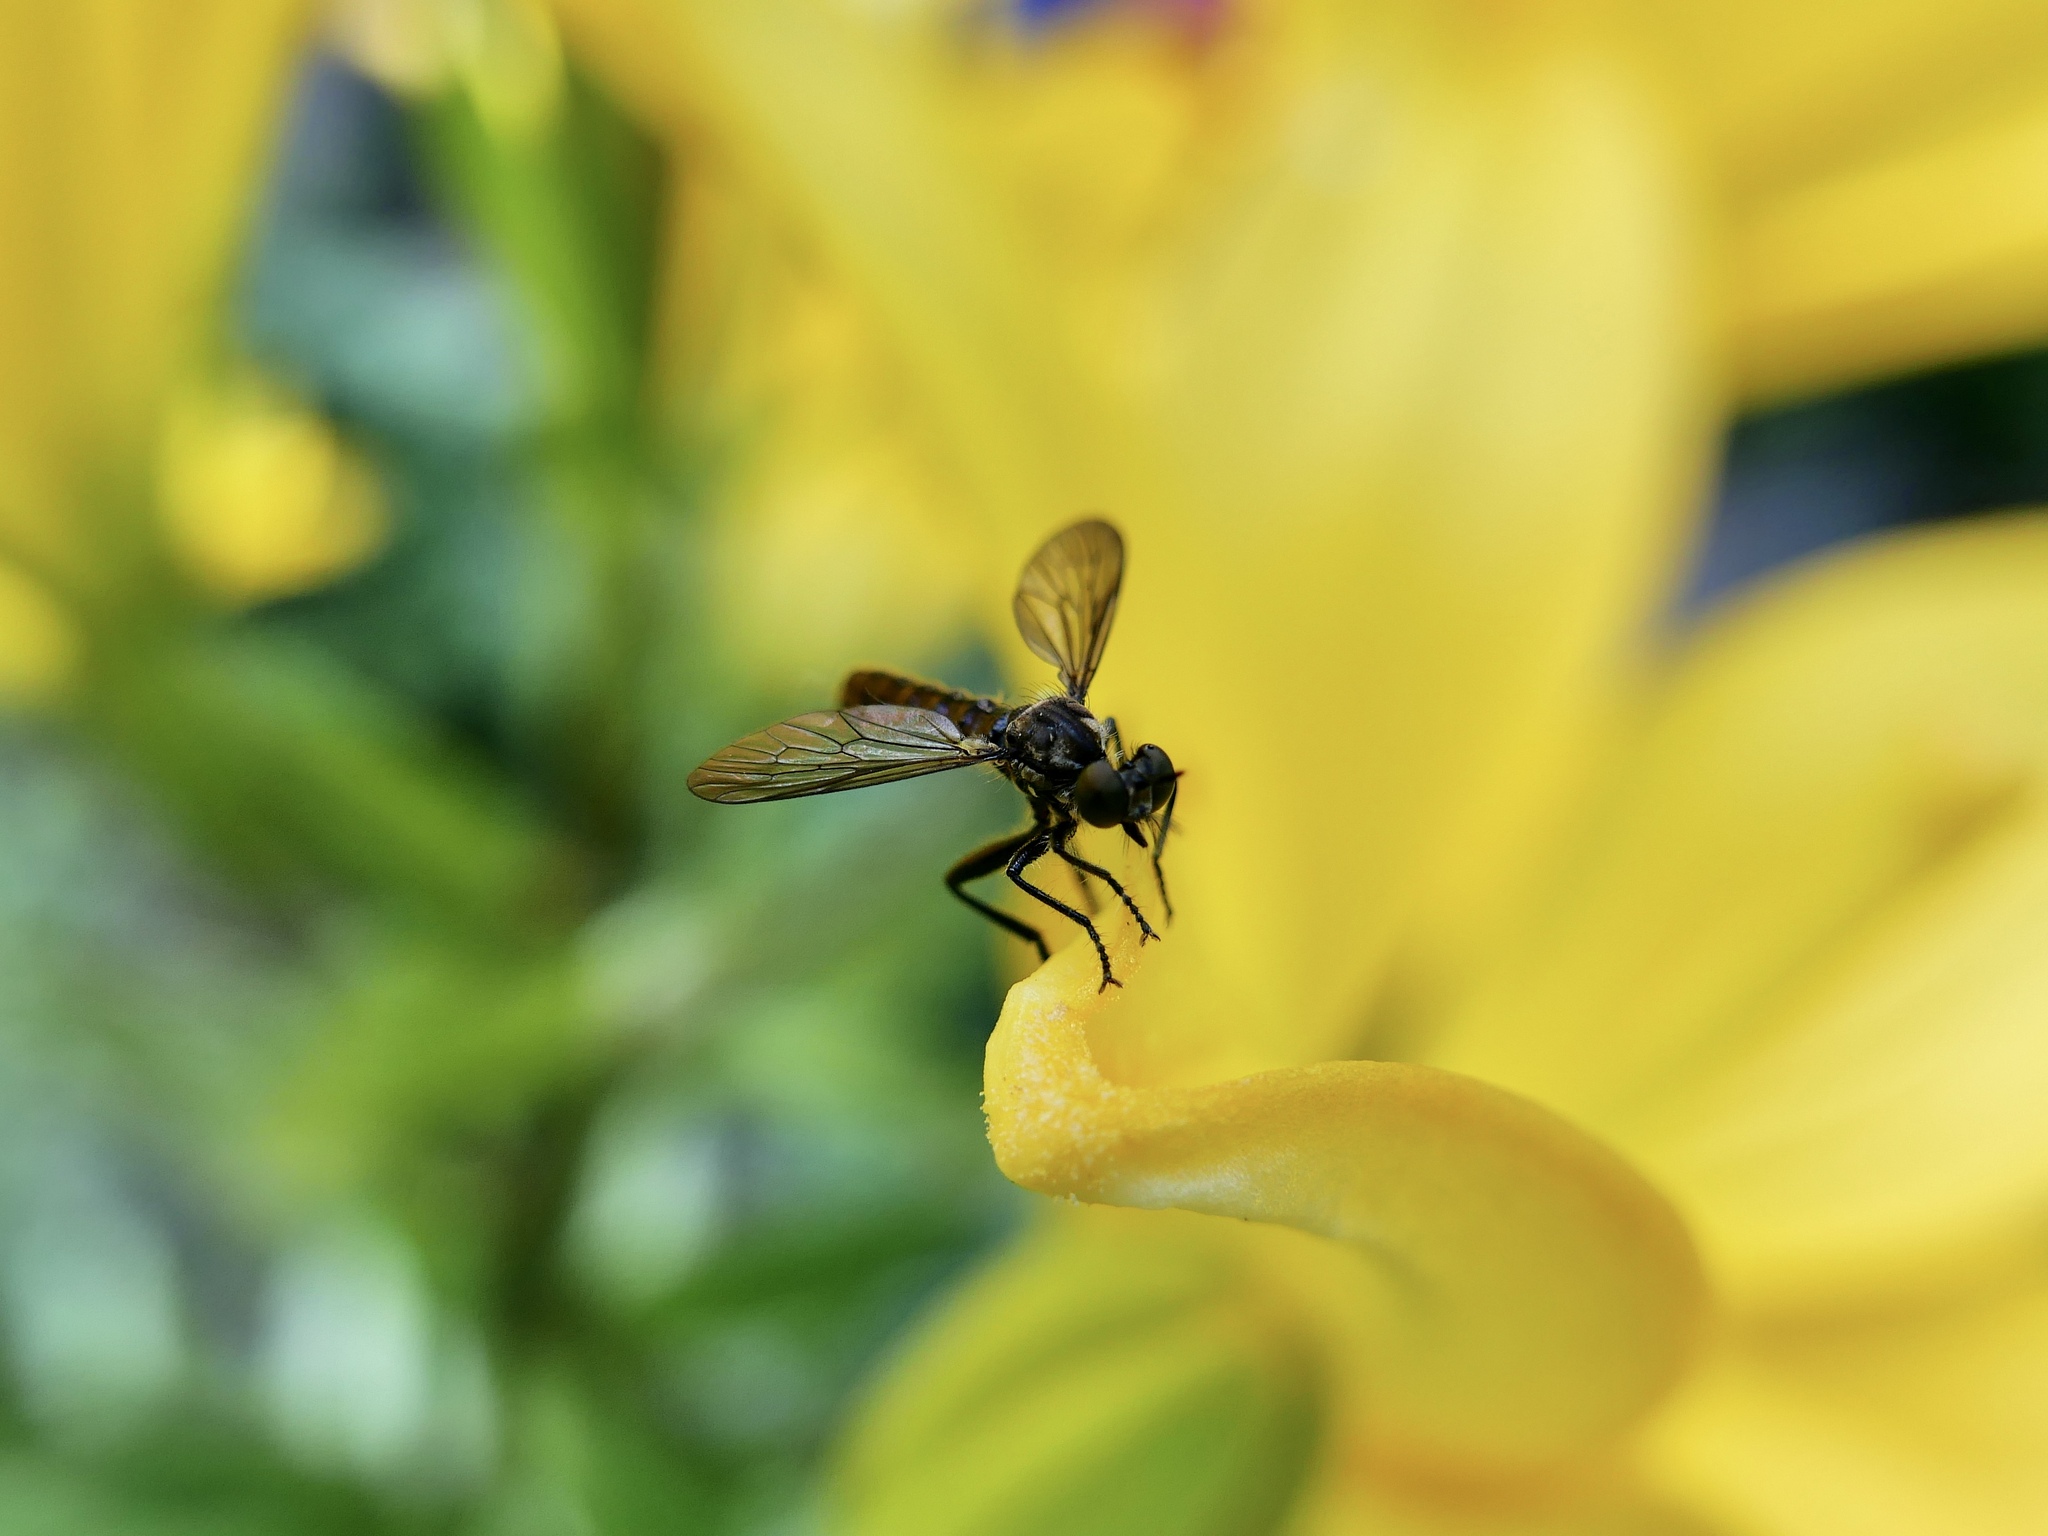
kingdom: Animalia
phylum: Arthropoda
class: Insecta
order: Diptera
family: Asilidae
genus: Eudioctria
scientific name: Eudioctria media
